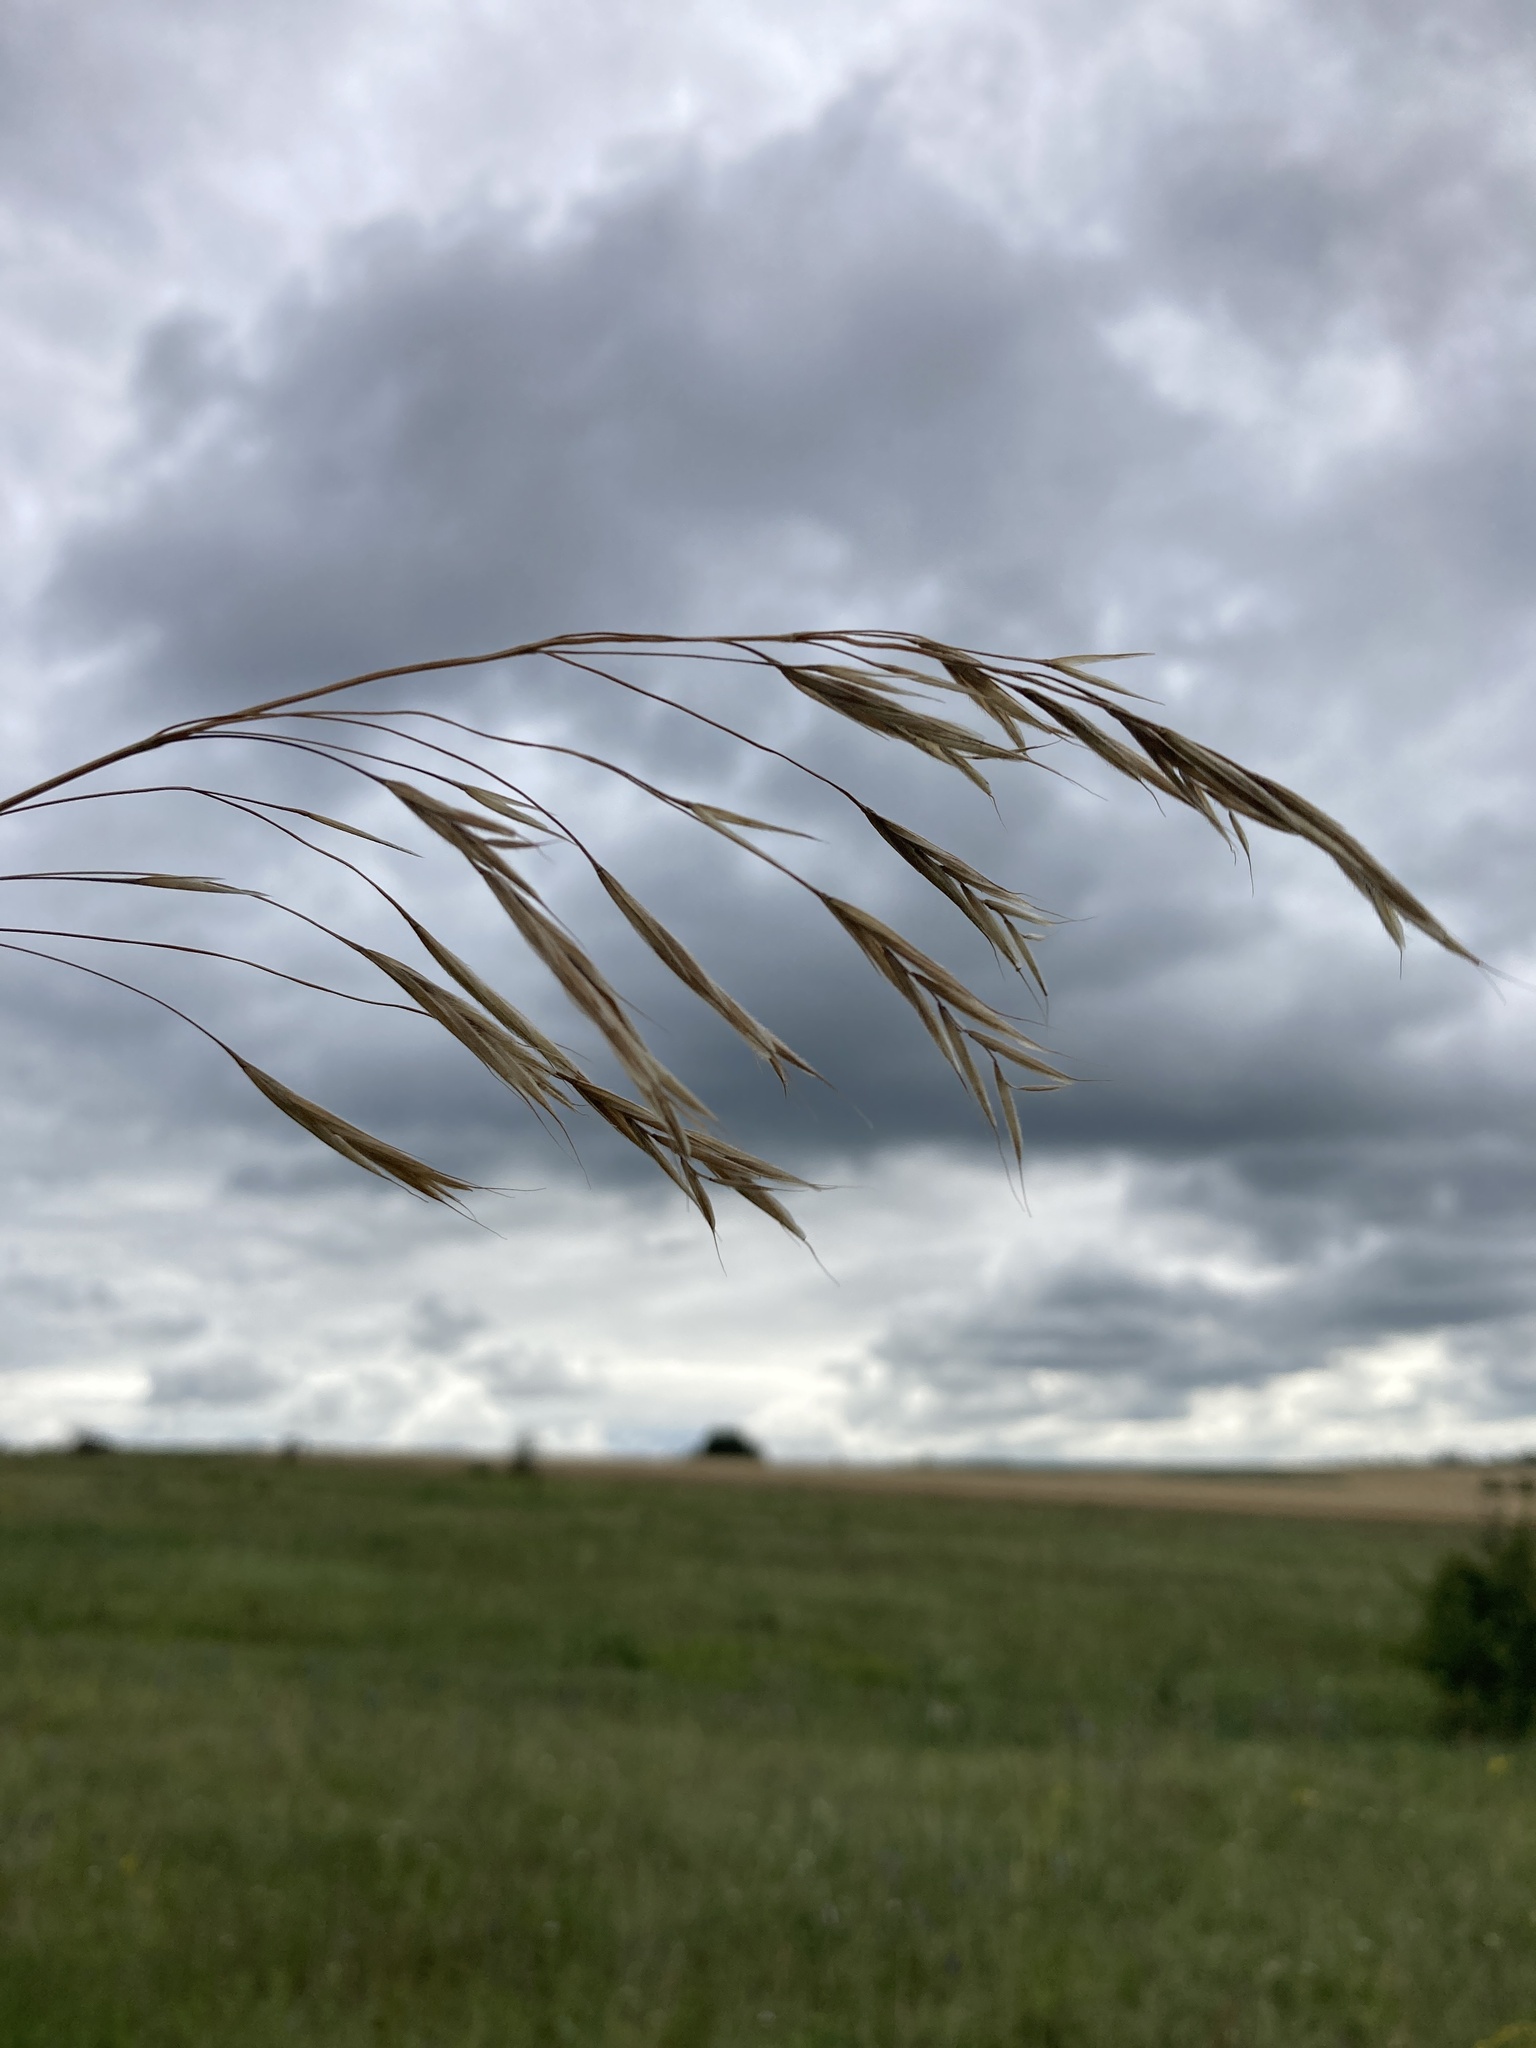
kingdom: Plantae
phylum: Tracheophyta
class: Liliopsida
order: Poales
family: Poaceae
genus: Bromus
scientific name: Bromus riparius
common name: Meadow brome
